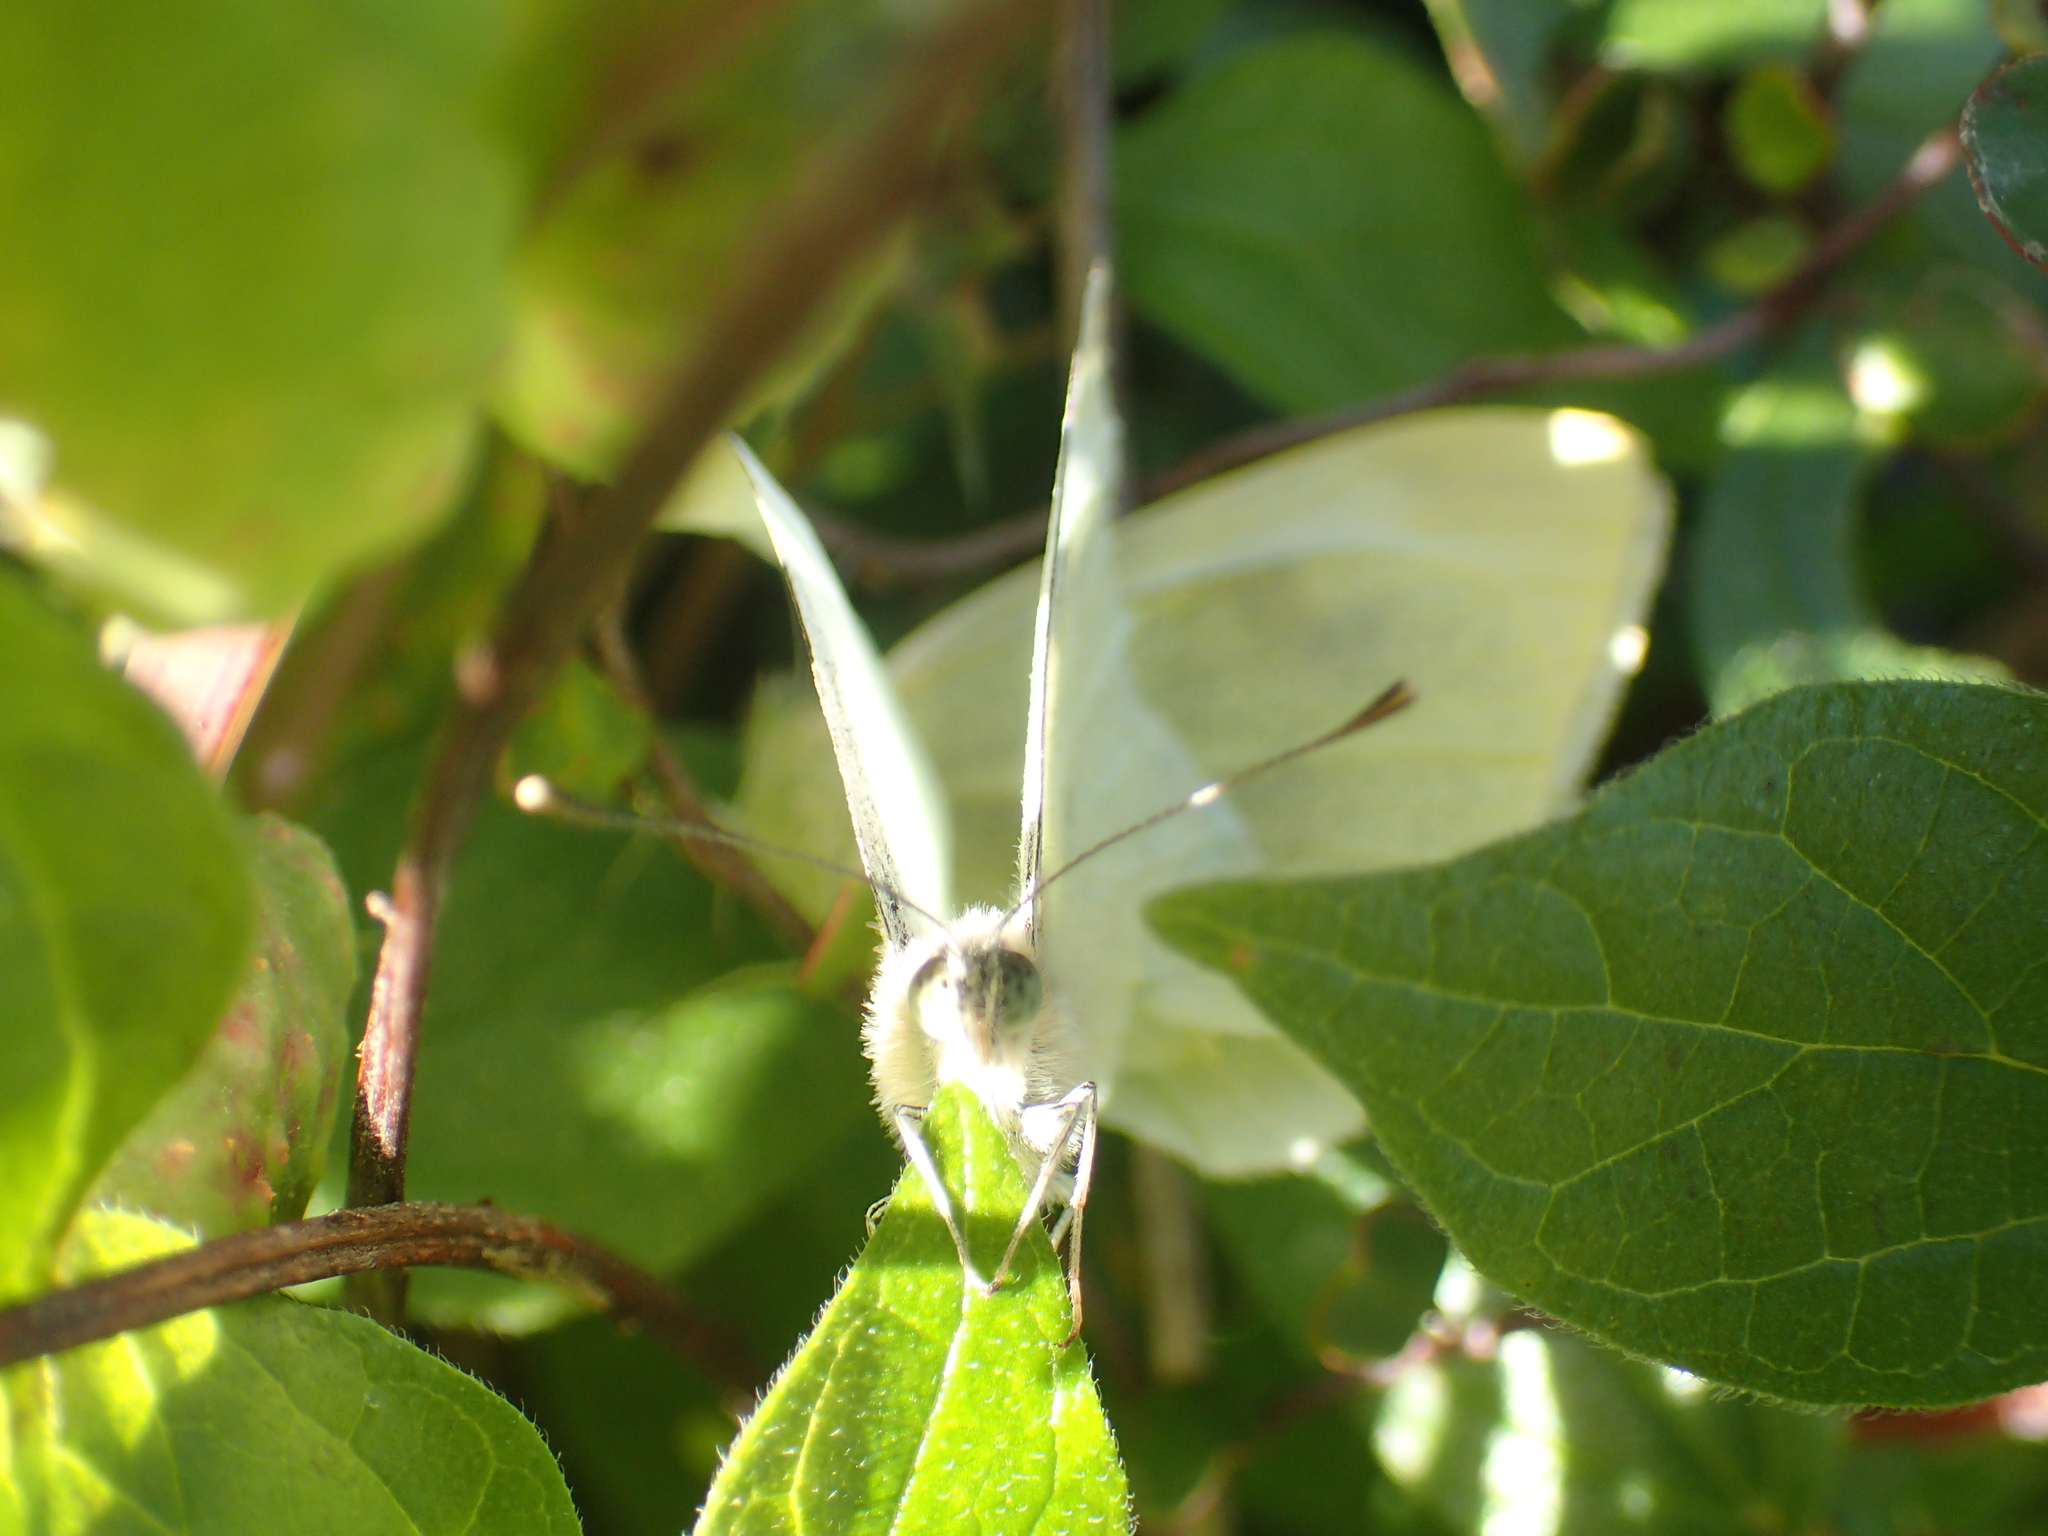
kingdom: Animalia
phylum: Arthropoda
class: Insecta
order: Lepidoptera
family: Pieridae
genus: Pieris
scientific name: Pieris rapae
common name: Small white
